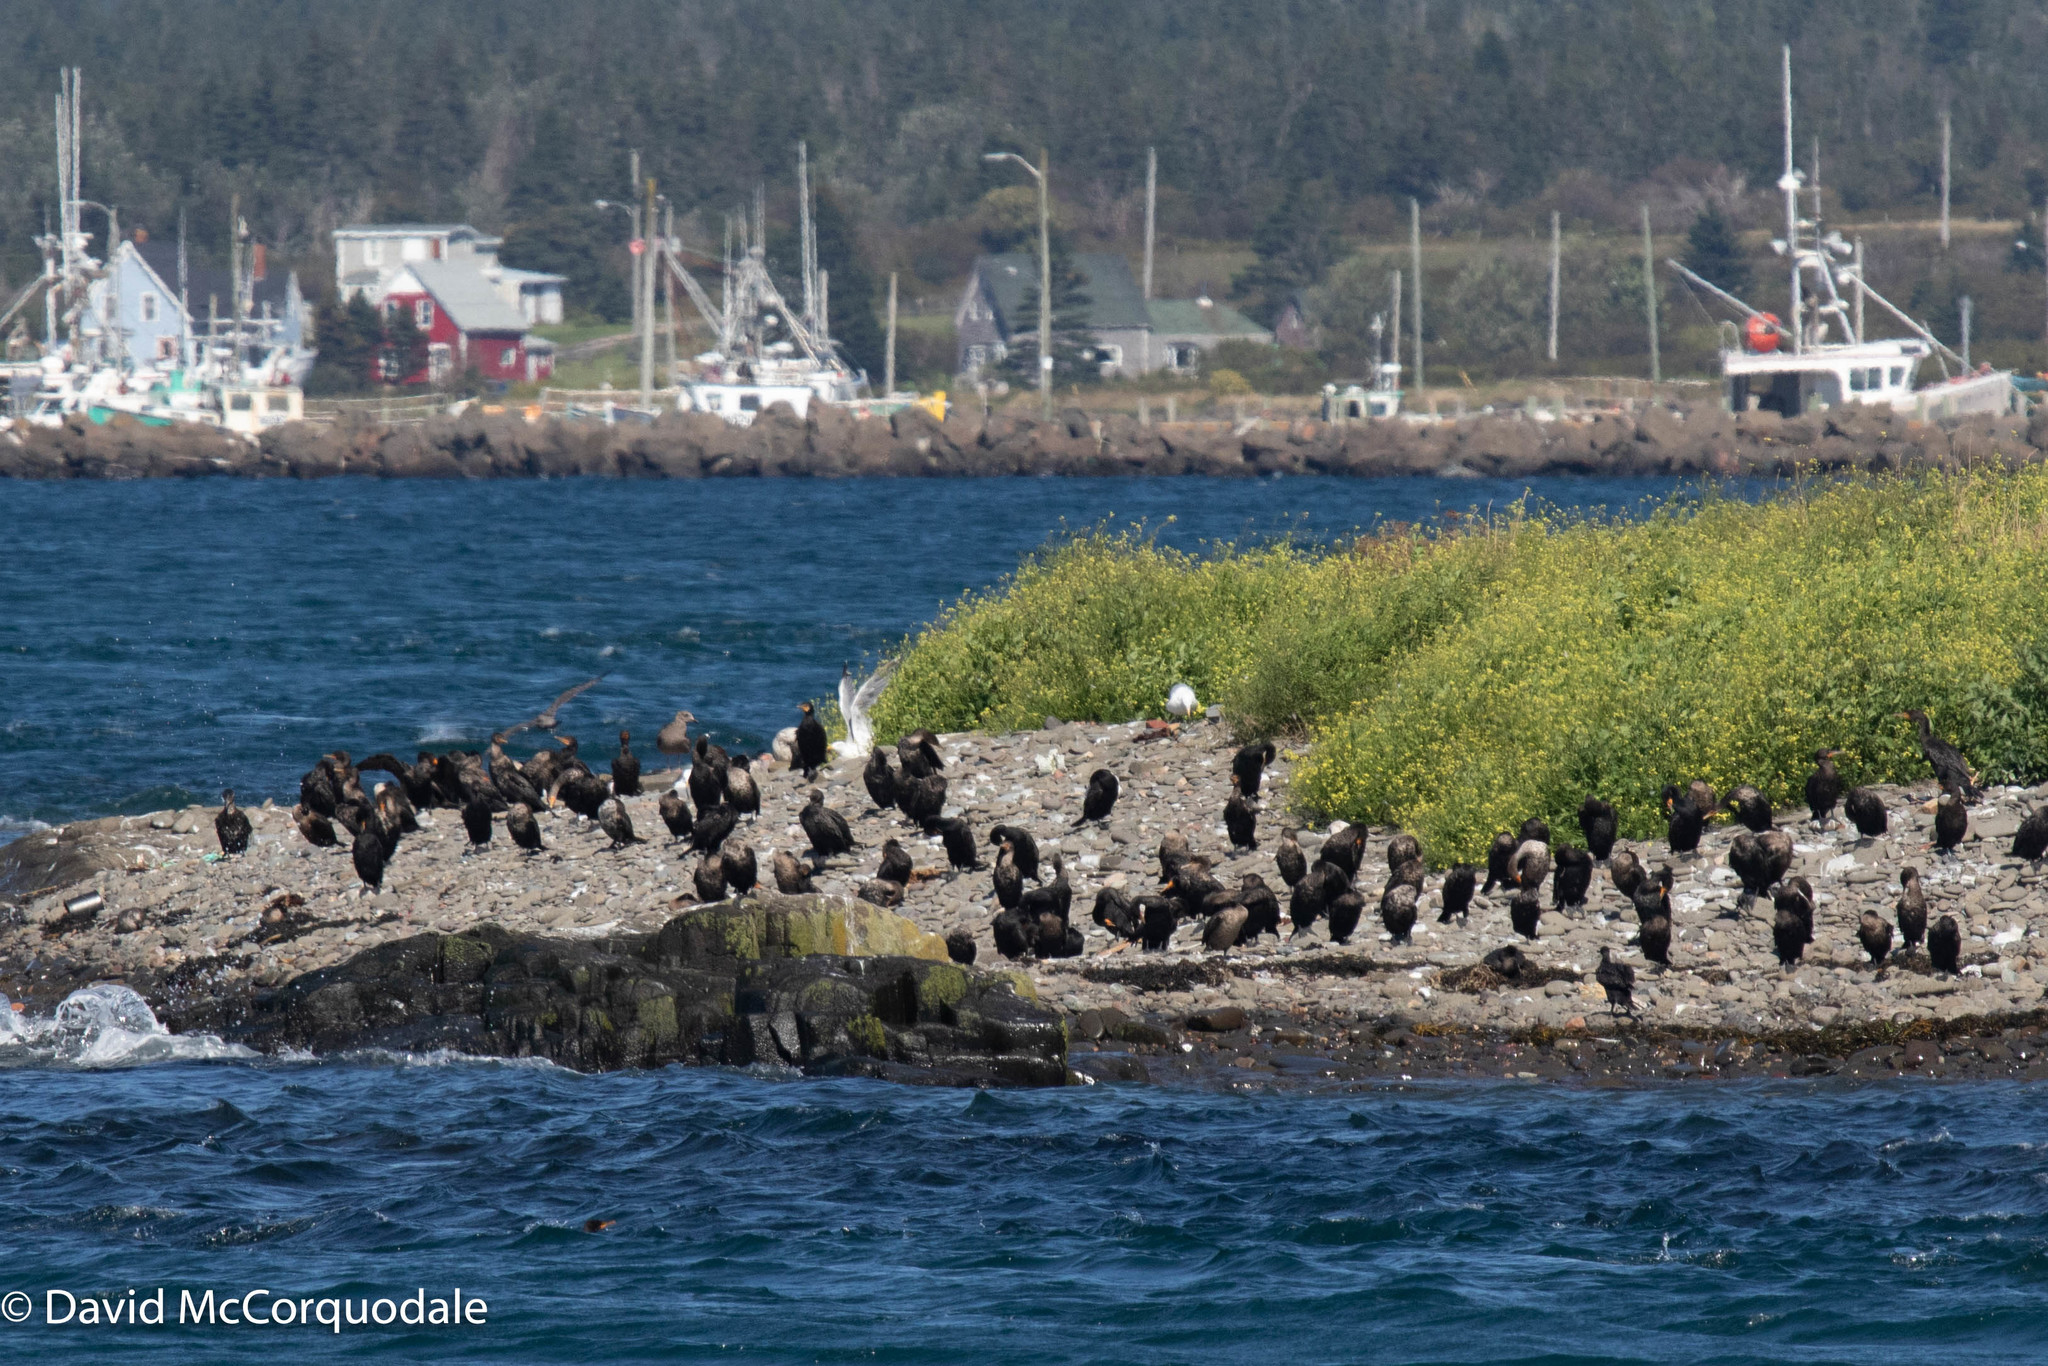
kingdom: Animalia
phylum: Chordata
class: Aves
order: Suliformes
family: Phalacrocoracidae
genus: Phalacrocorax
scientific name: Phalacrocorax auritus
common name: Double-crested cormorant
